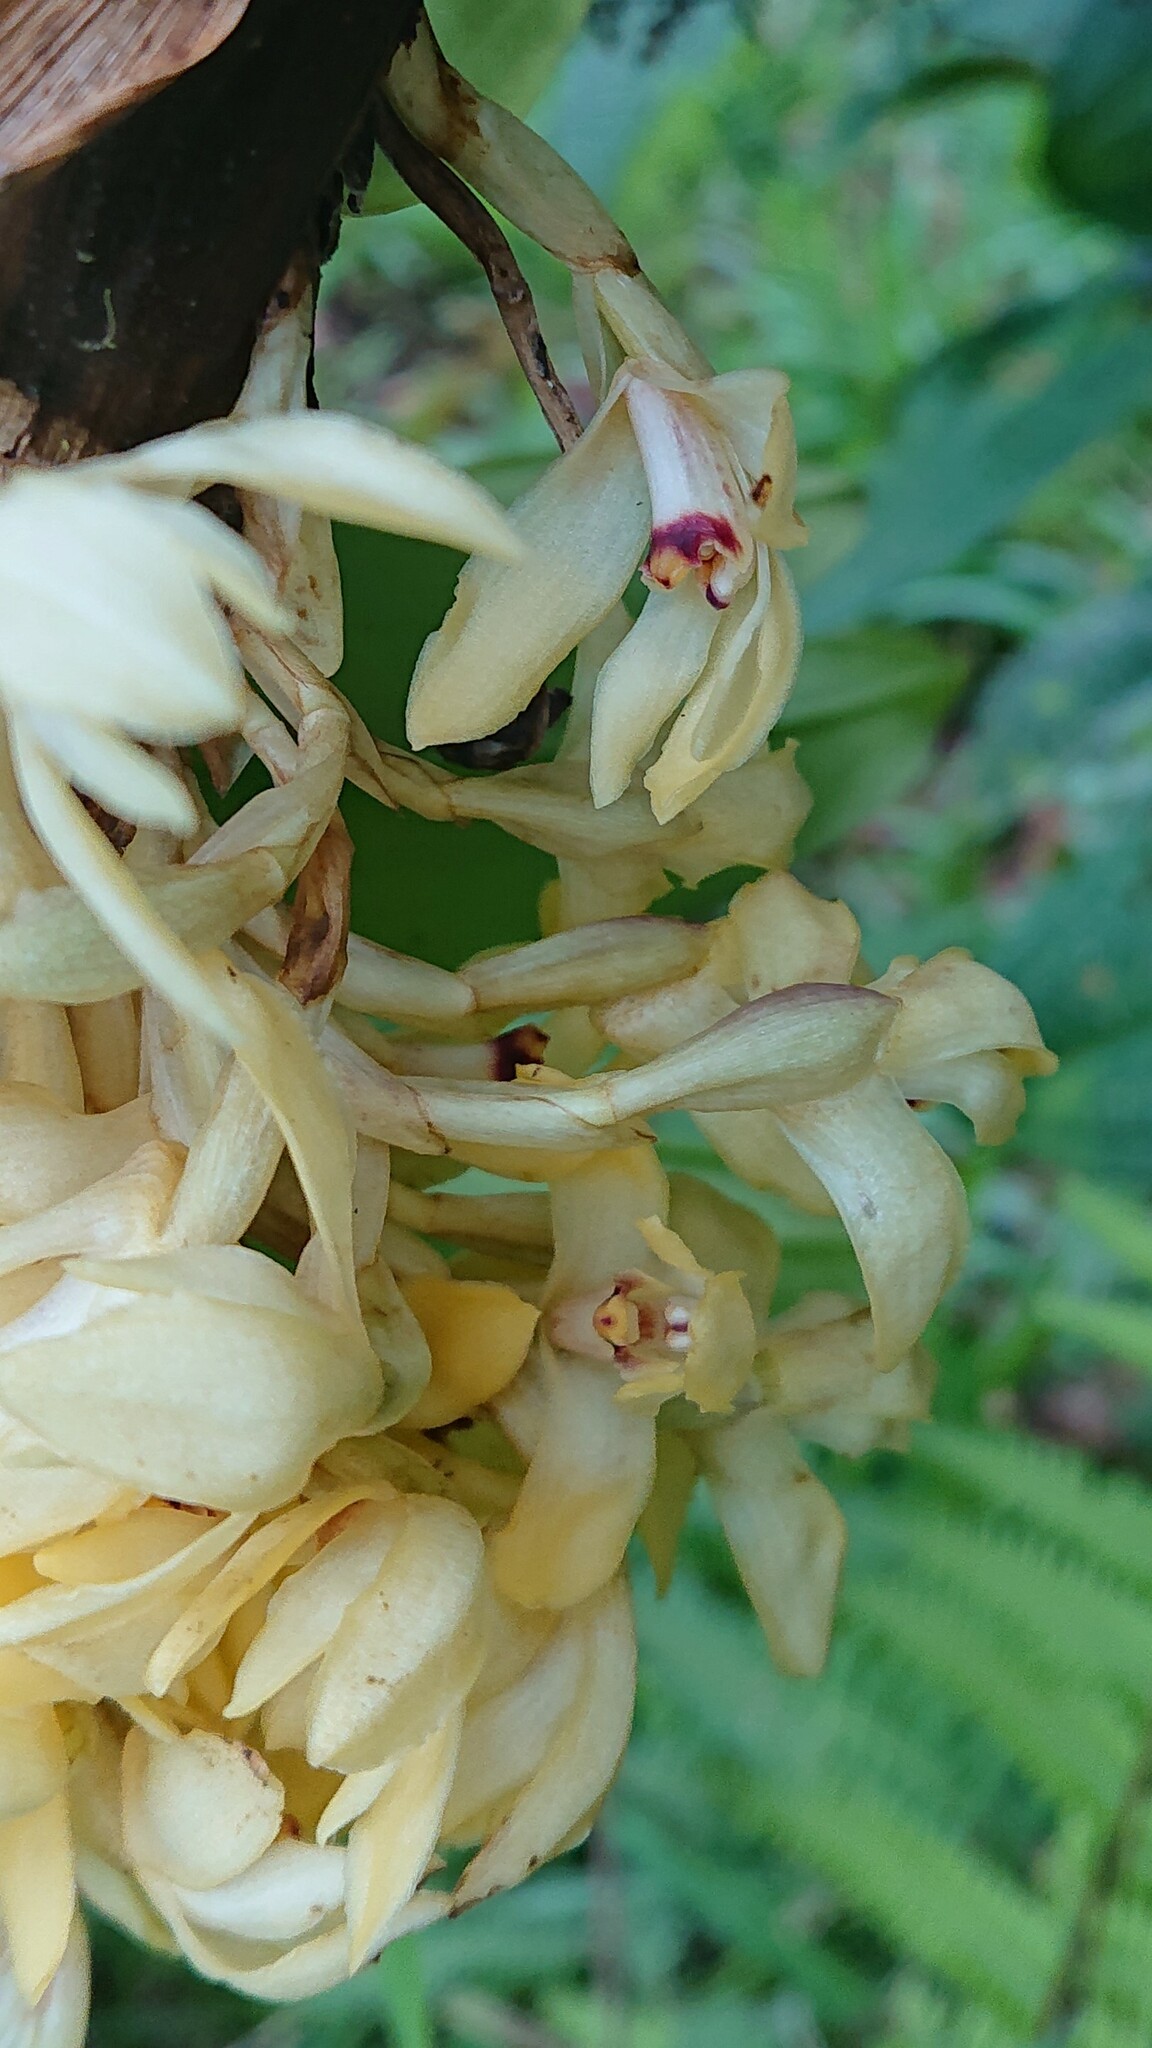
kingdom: Plantae
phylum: Tracheophyta
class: Liliopsida
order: Asparagales
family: Orchidaceae
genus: Maxillaria
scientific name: Maxillaria embreei
